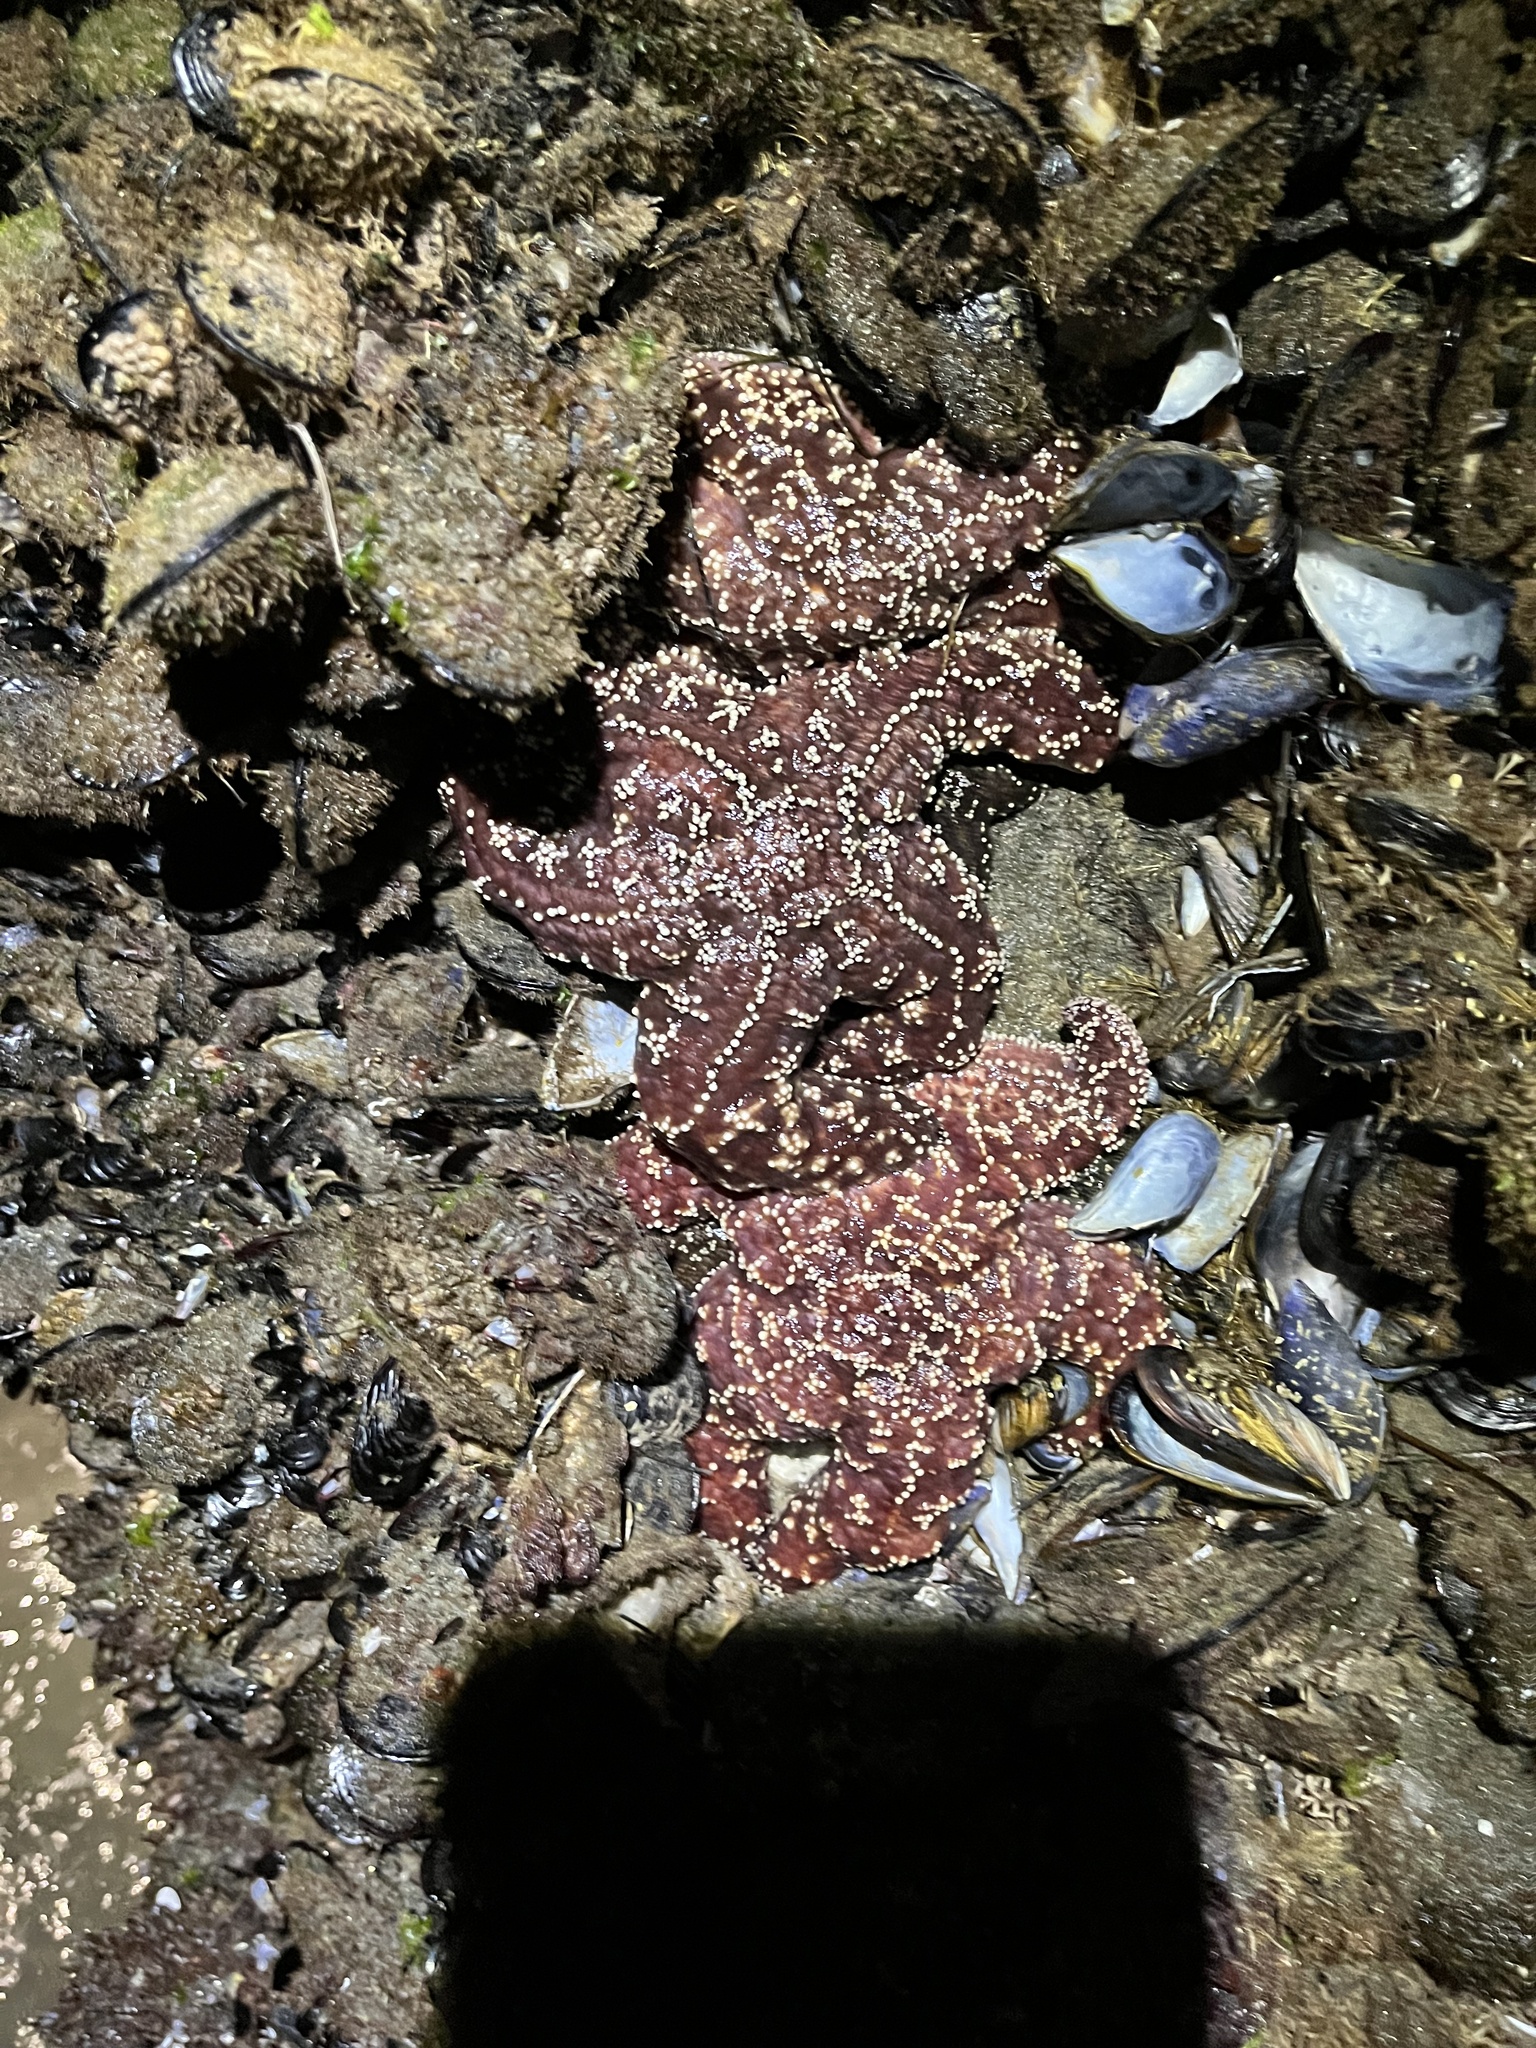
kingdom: Animalia
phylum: Echinodermata
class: Asteroidea
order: Forcipulatida
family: Asteriidae
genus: Pisaster
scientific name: Pisaster ochraceus
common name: Ochre stars
